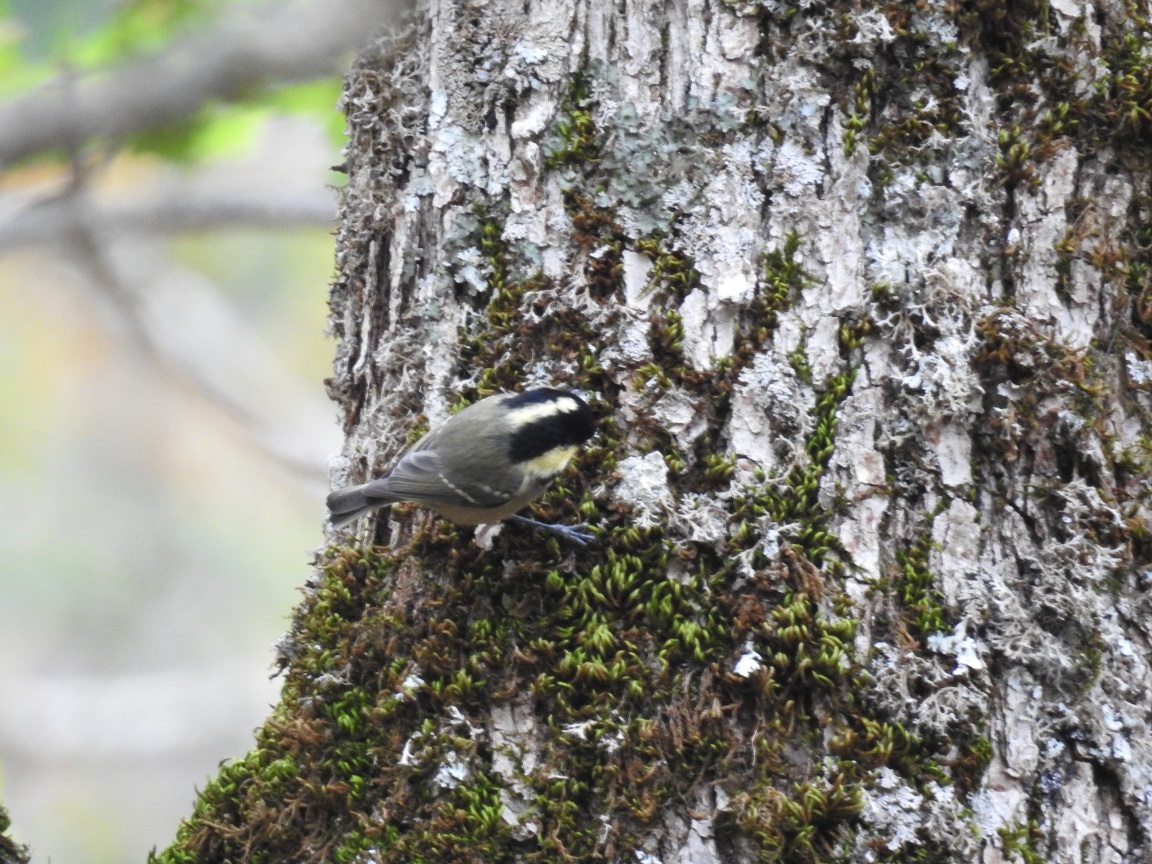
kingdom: Animalia
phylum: Chordata
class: Aves
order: Passeriformes
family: Paridae
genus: Periparus
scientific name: Periparus ater
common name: Coal tit
